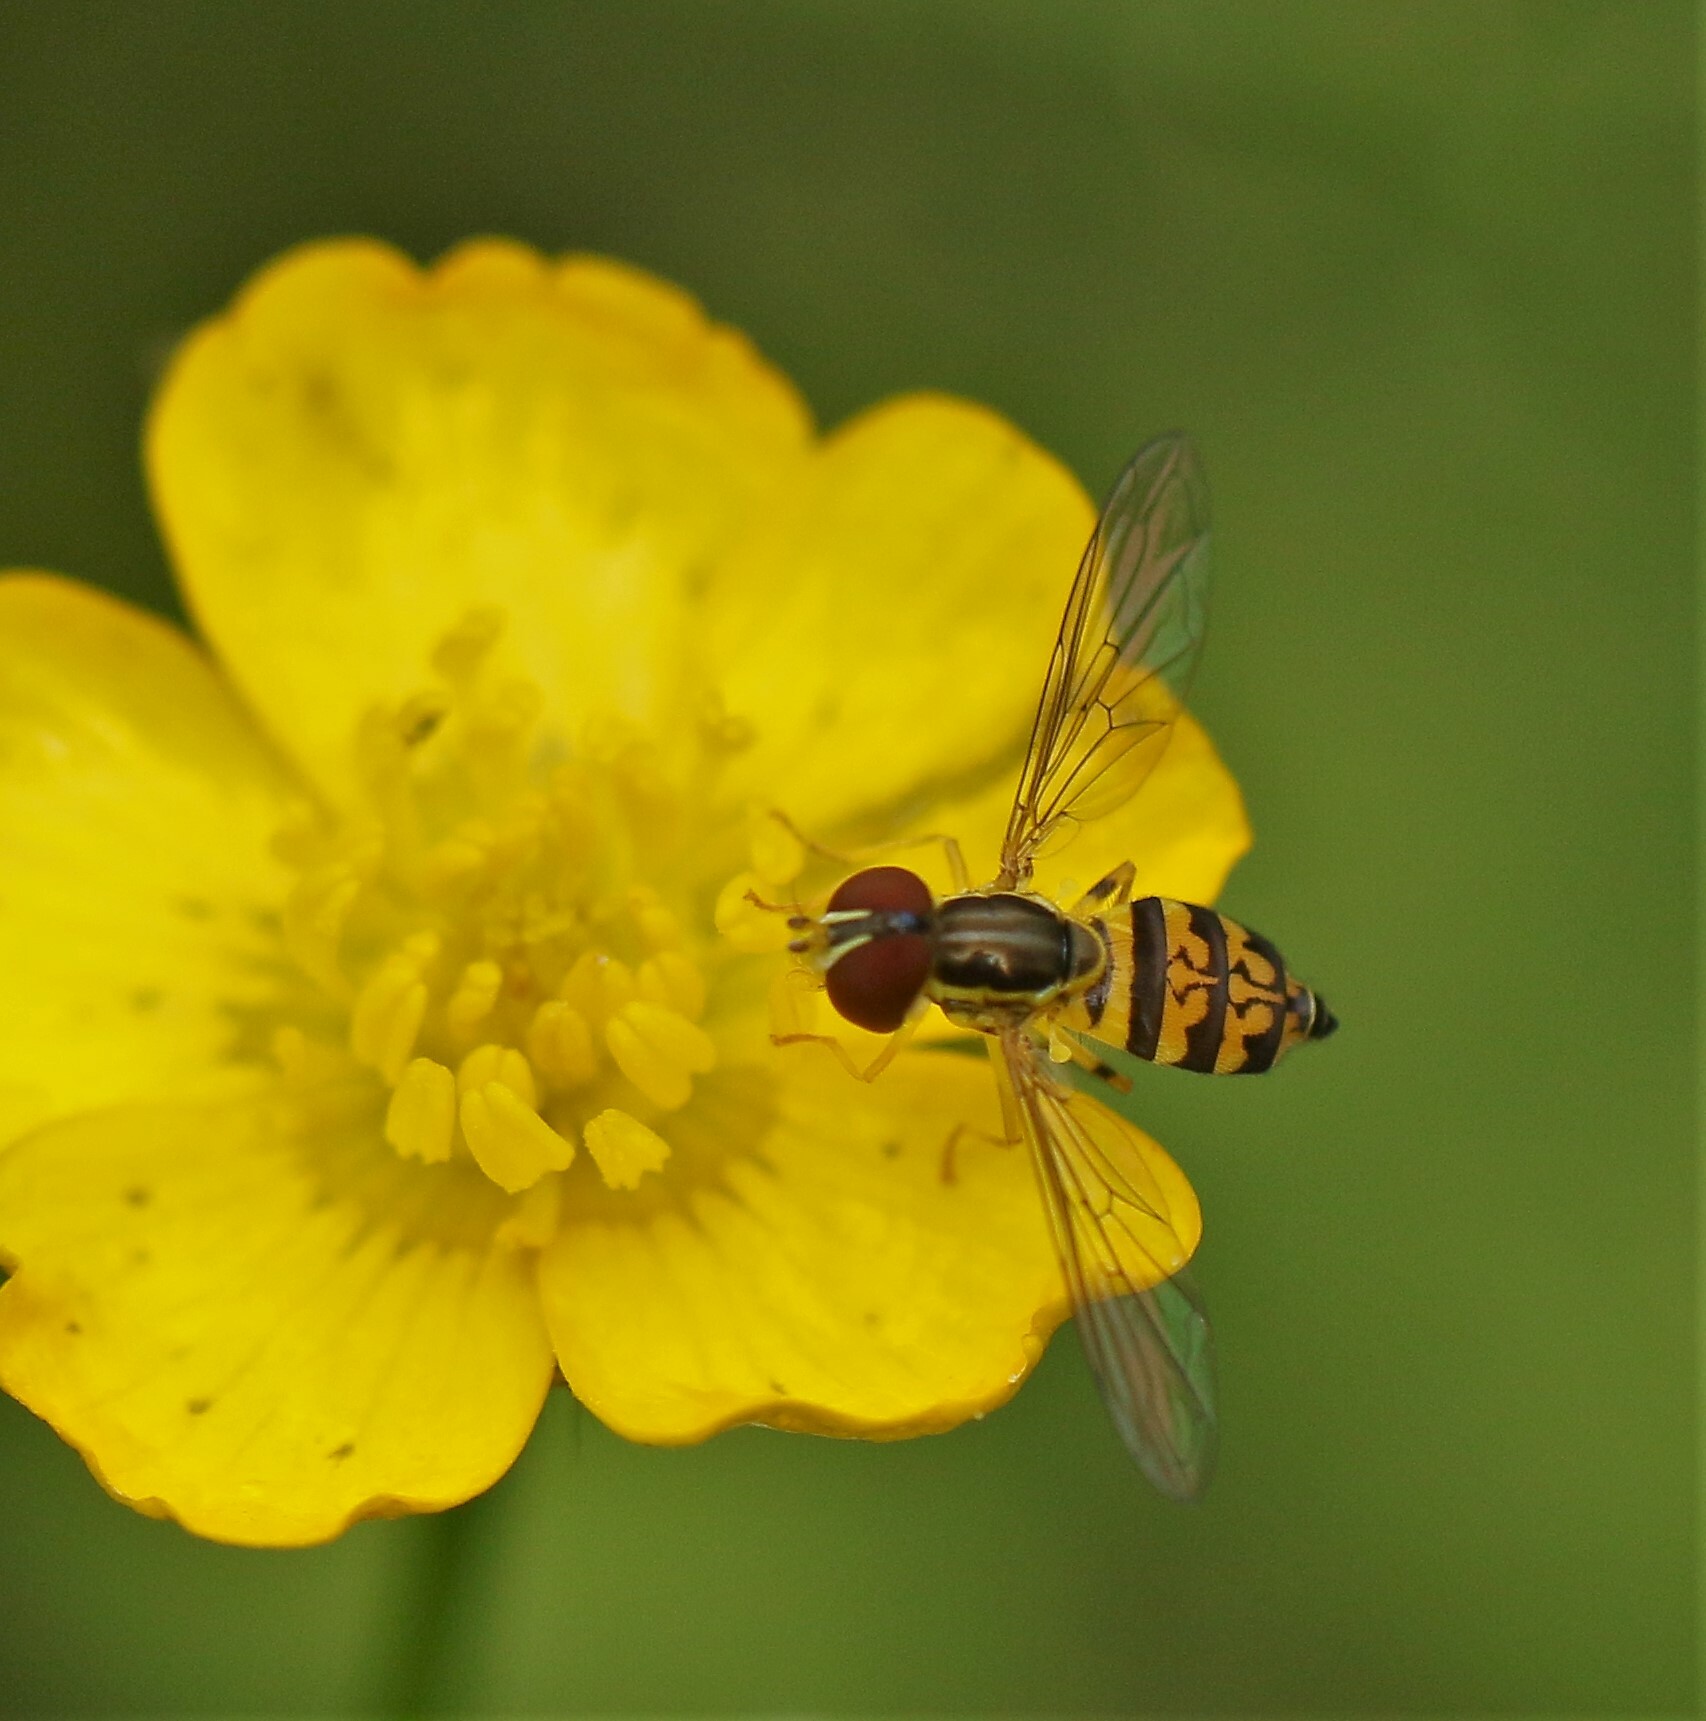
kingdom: Animalia
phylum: Arthropoda
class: Insecta
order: Diptera
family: Syrphidae
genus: Toxomerus
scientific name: Toxomerus geminatus
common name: Eastern calligrapher
